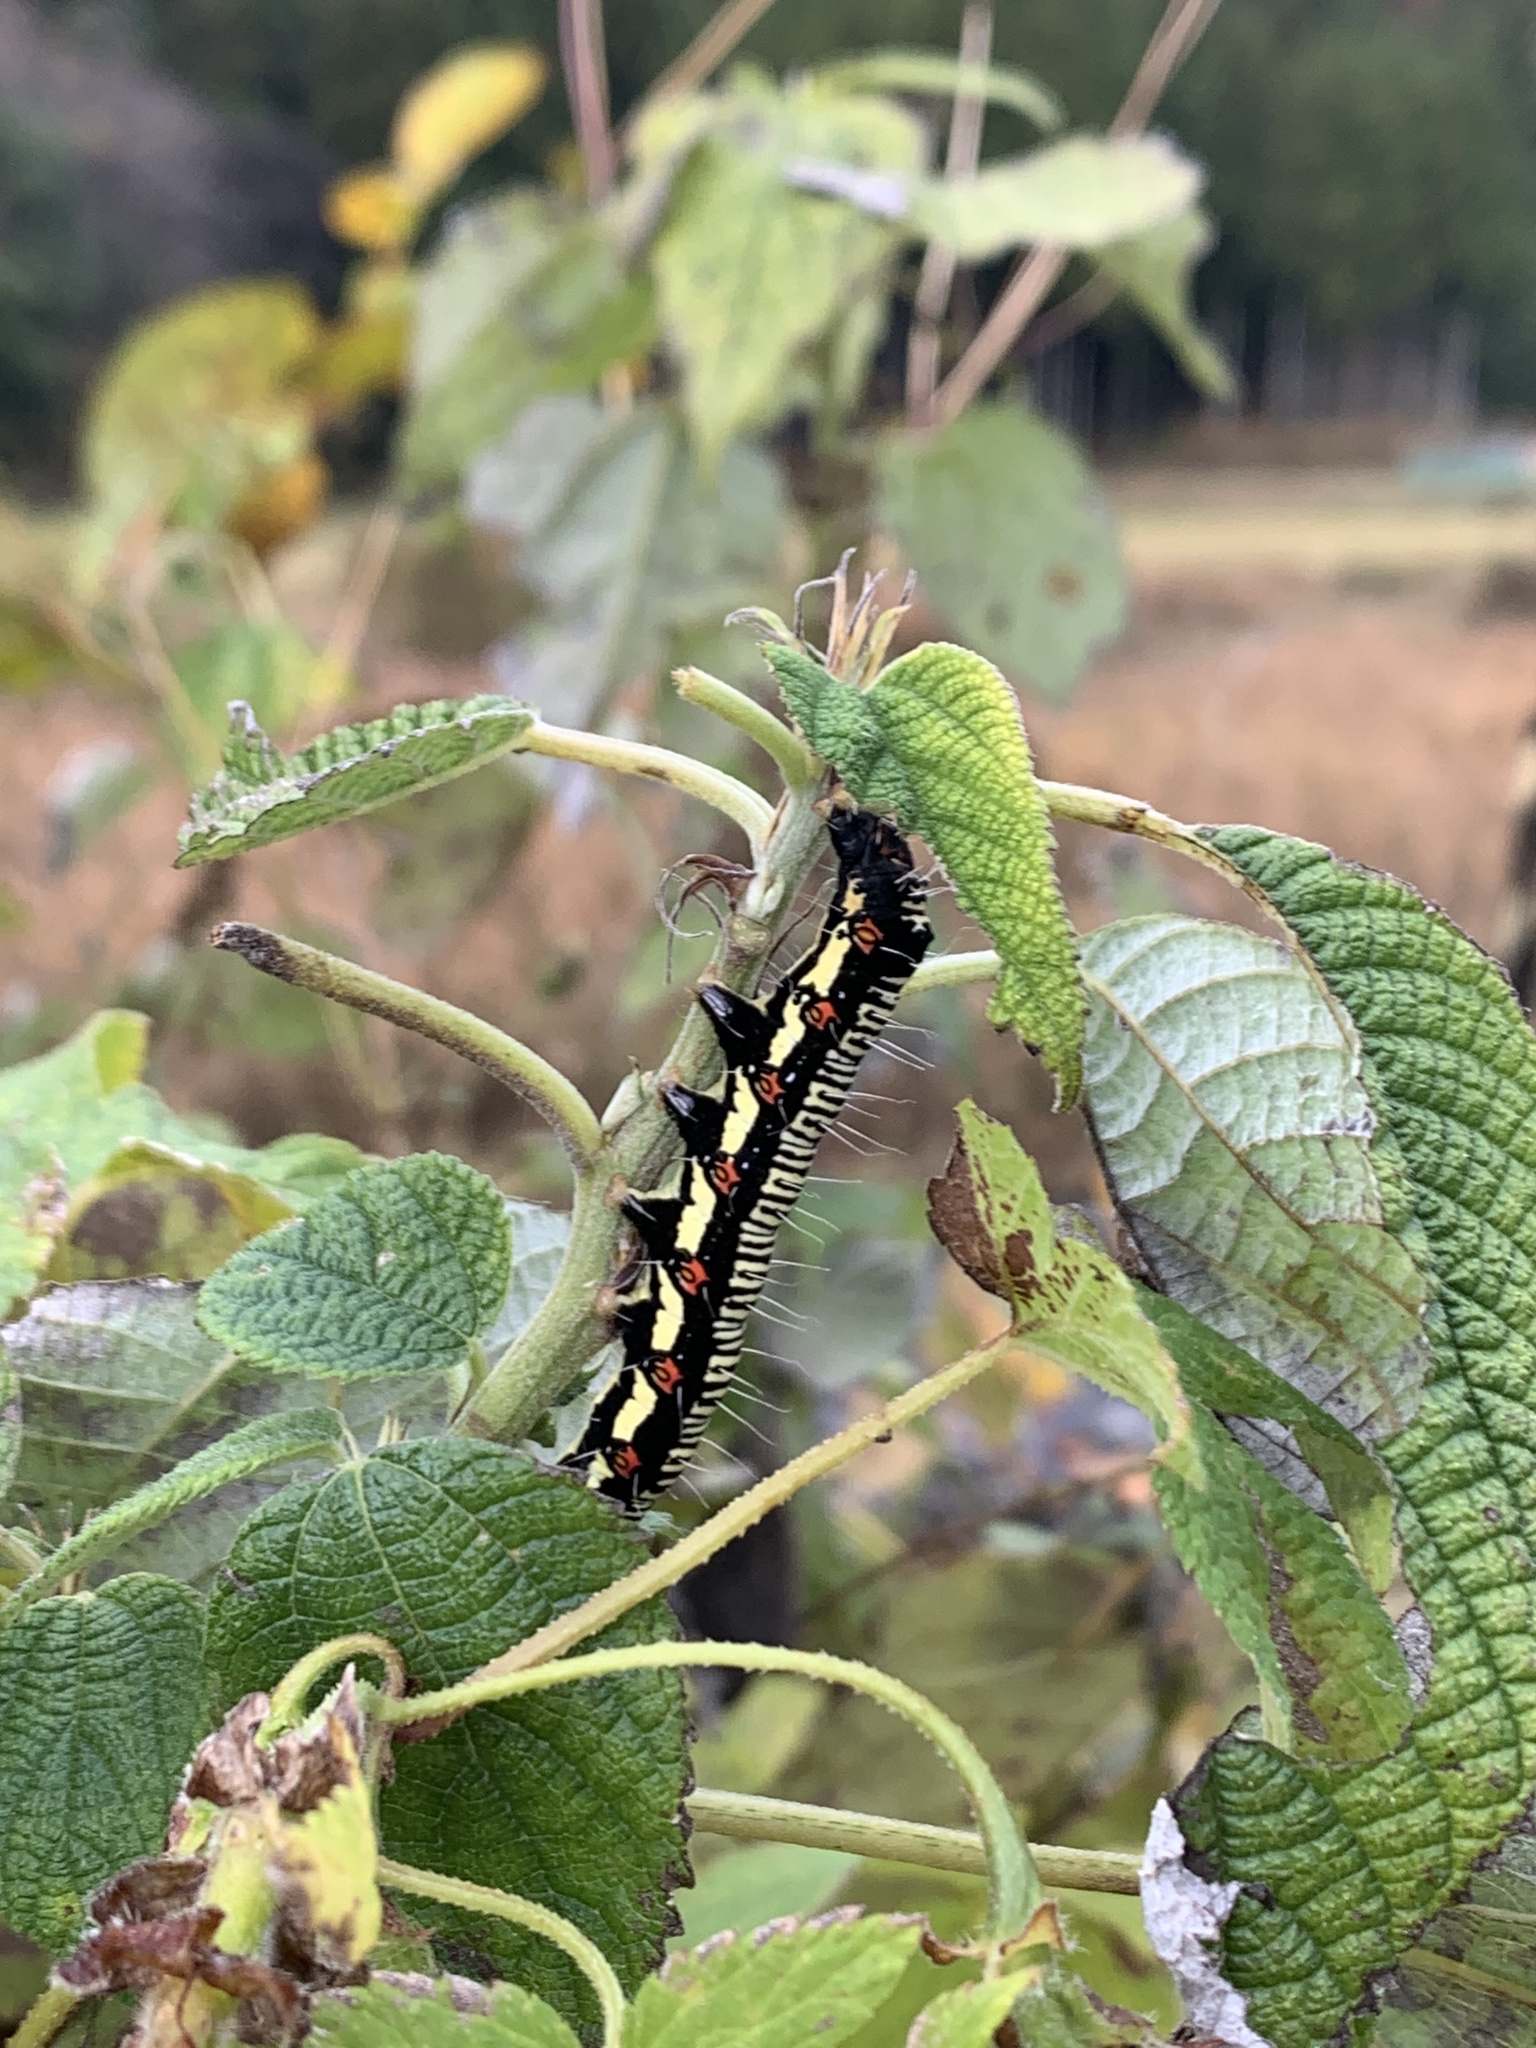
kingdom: Animalia
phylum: Arthropoda
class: Insecta
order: Lepidoptera
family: Erebidae
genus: Arcte
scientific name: Arcte coerula
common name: Ramie moth
